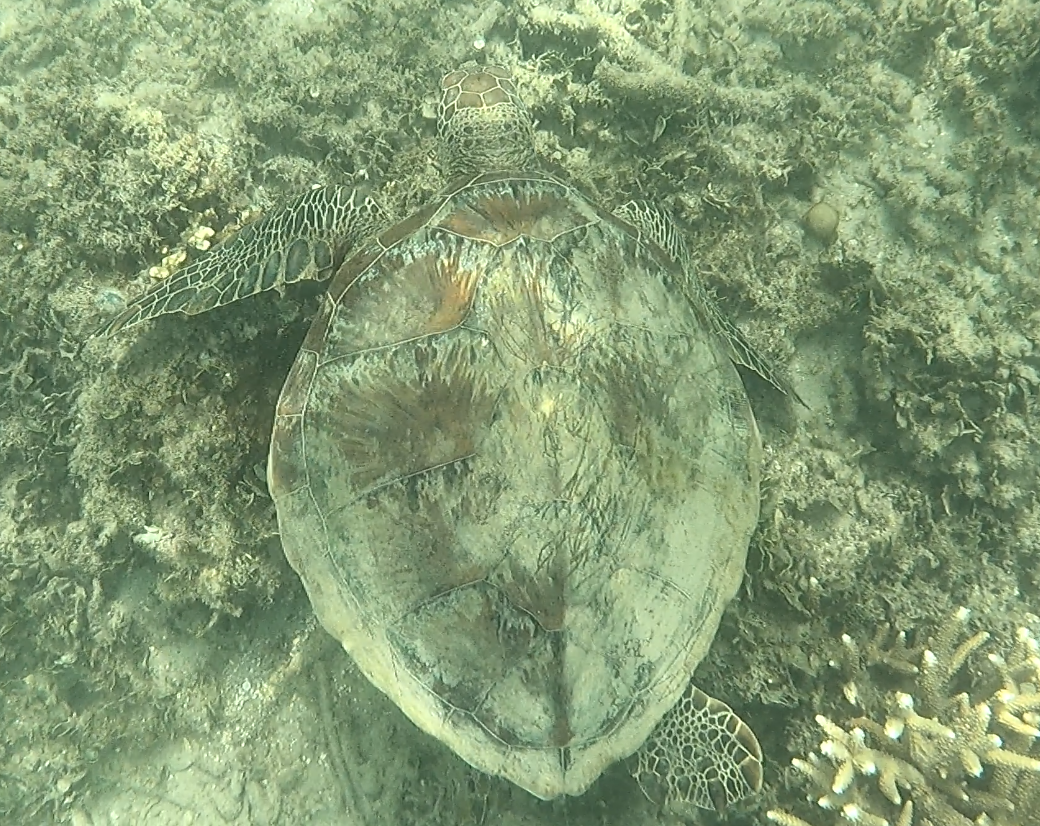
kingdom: Animalia
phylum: Chordata
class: Testudines
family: Cheloniidae
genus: Chelonia
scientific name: Chelonia mydas
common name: Green turtle
